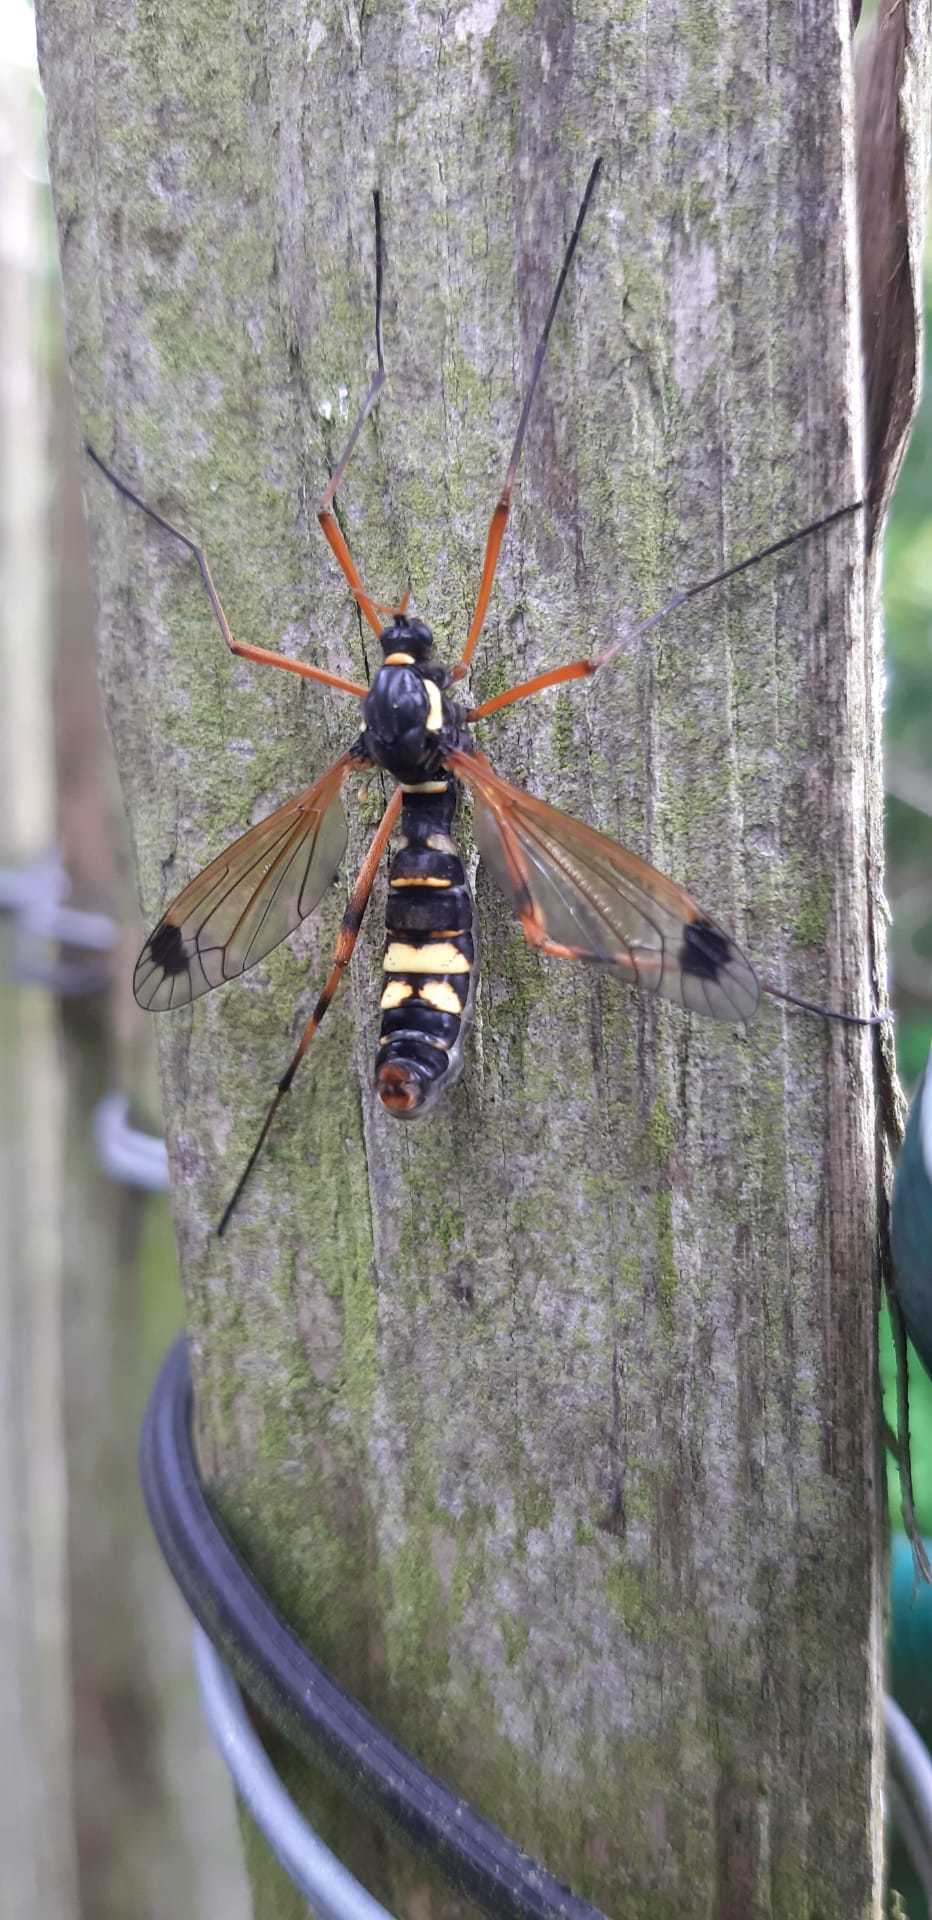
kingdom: Animalia
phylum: Arthropoda
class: Insecta
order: Diptera
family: Tipulidae
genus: Ctenophora
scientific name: Ctenophora festiva
